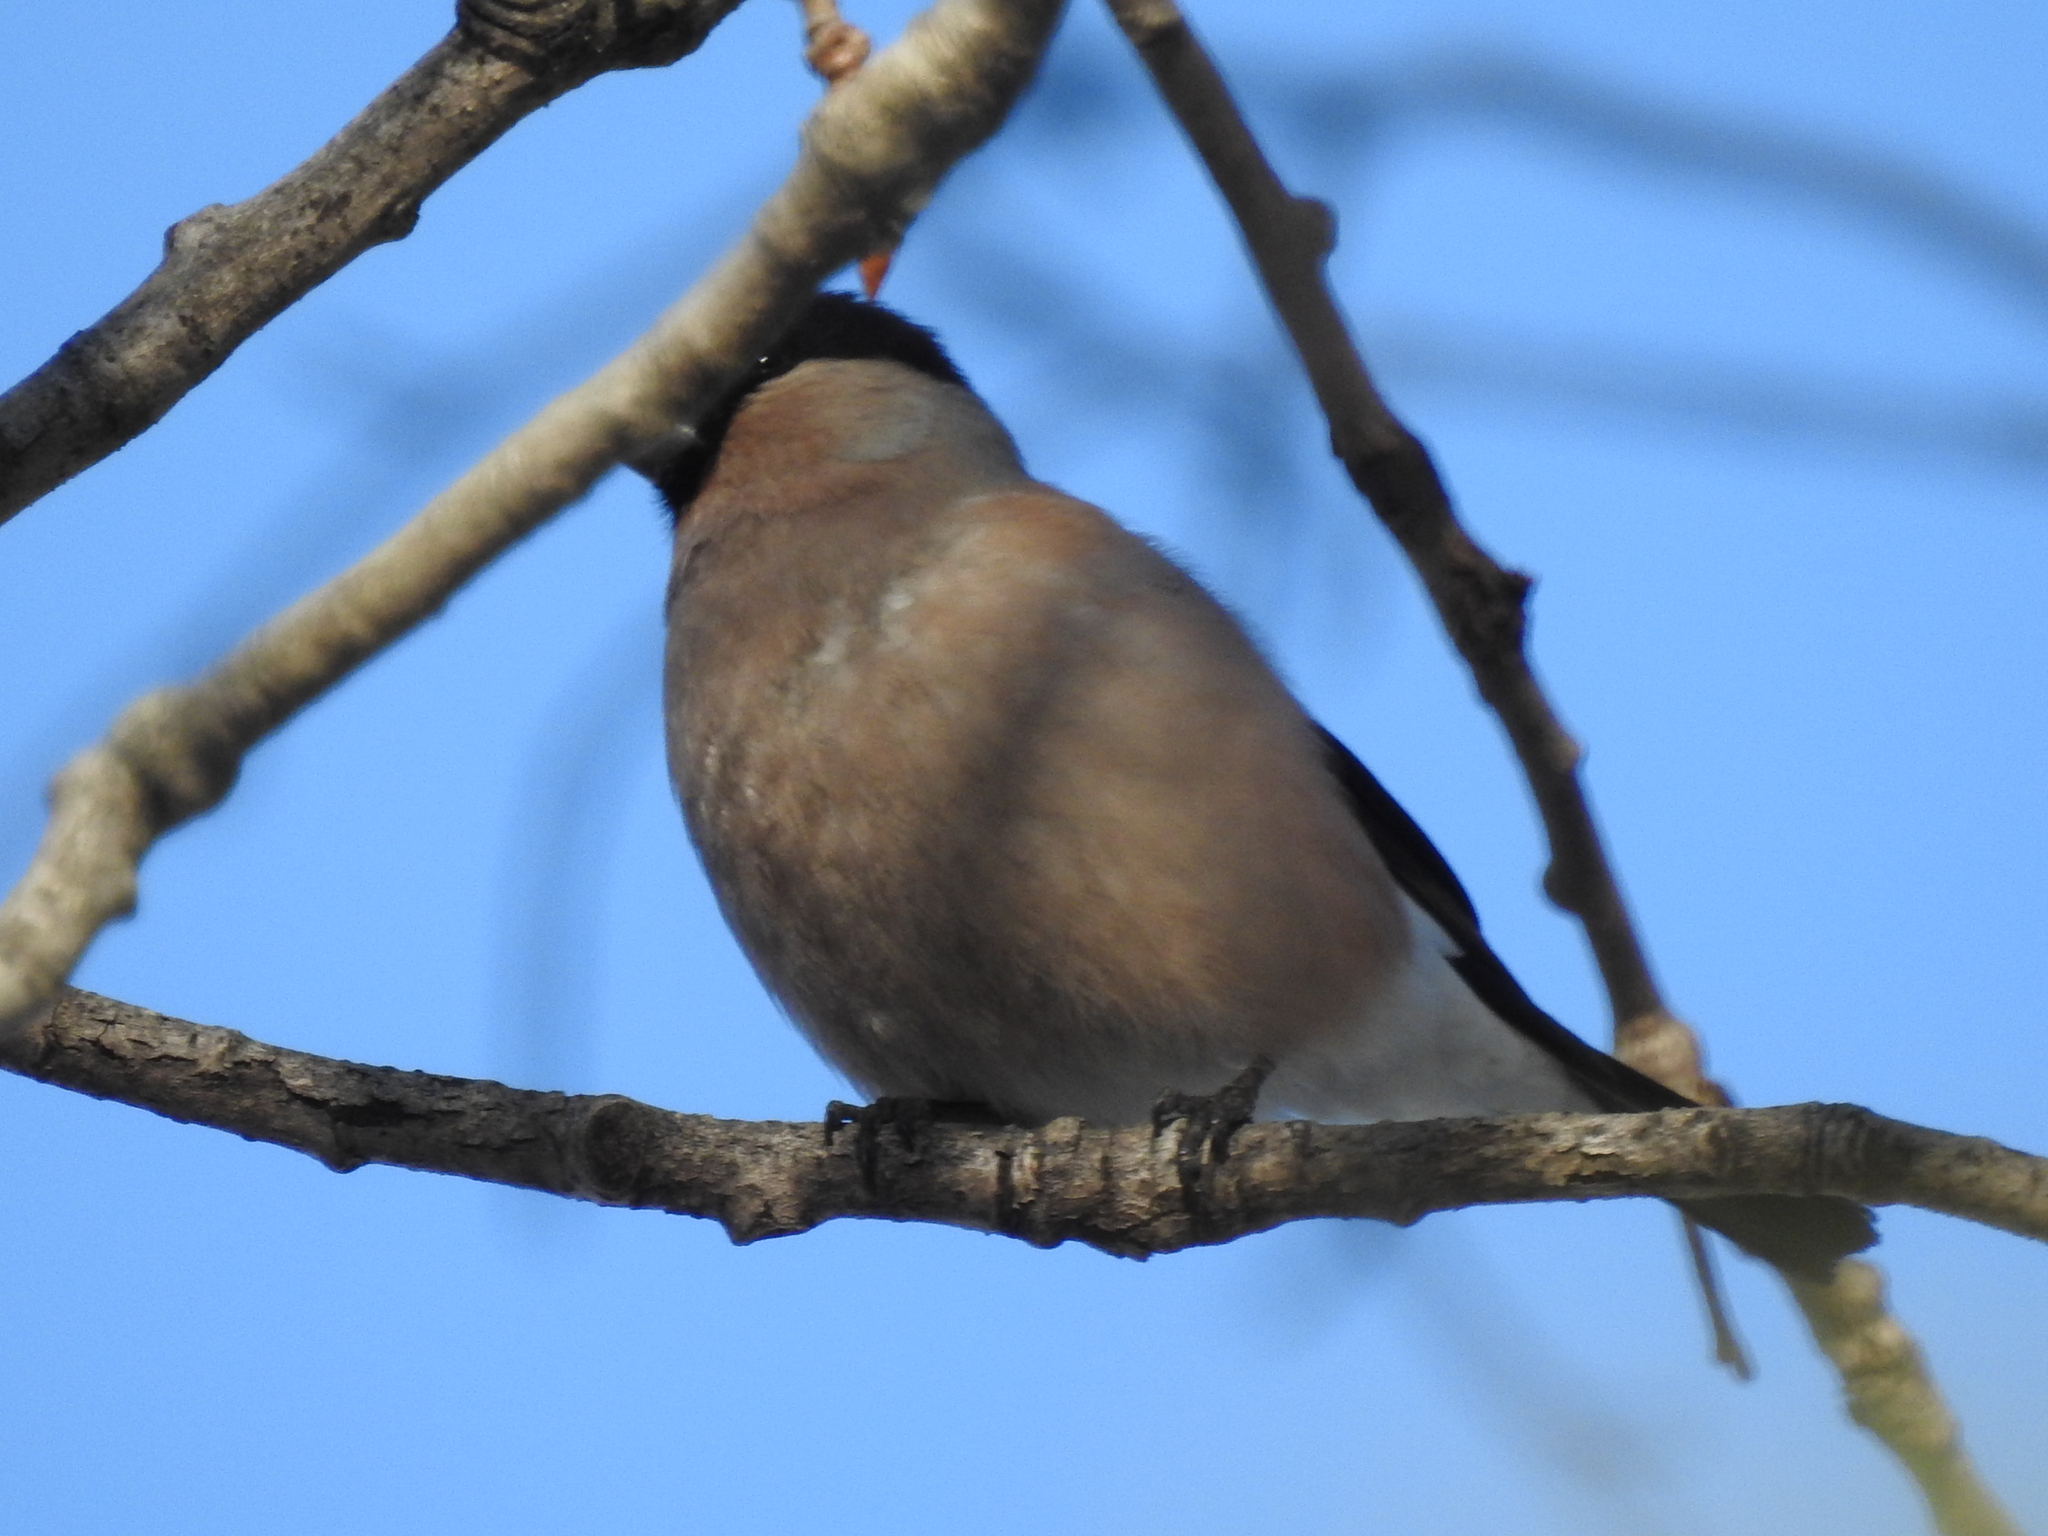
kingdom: Animalia
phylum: Chordata
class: Aves
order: Passeriformes
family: Fringillidae
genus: Pyrrhula
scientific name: Pyrrhula pyrrhula
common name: Eurasian bullfinch
